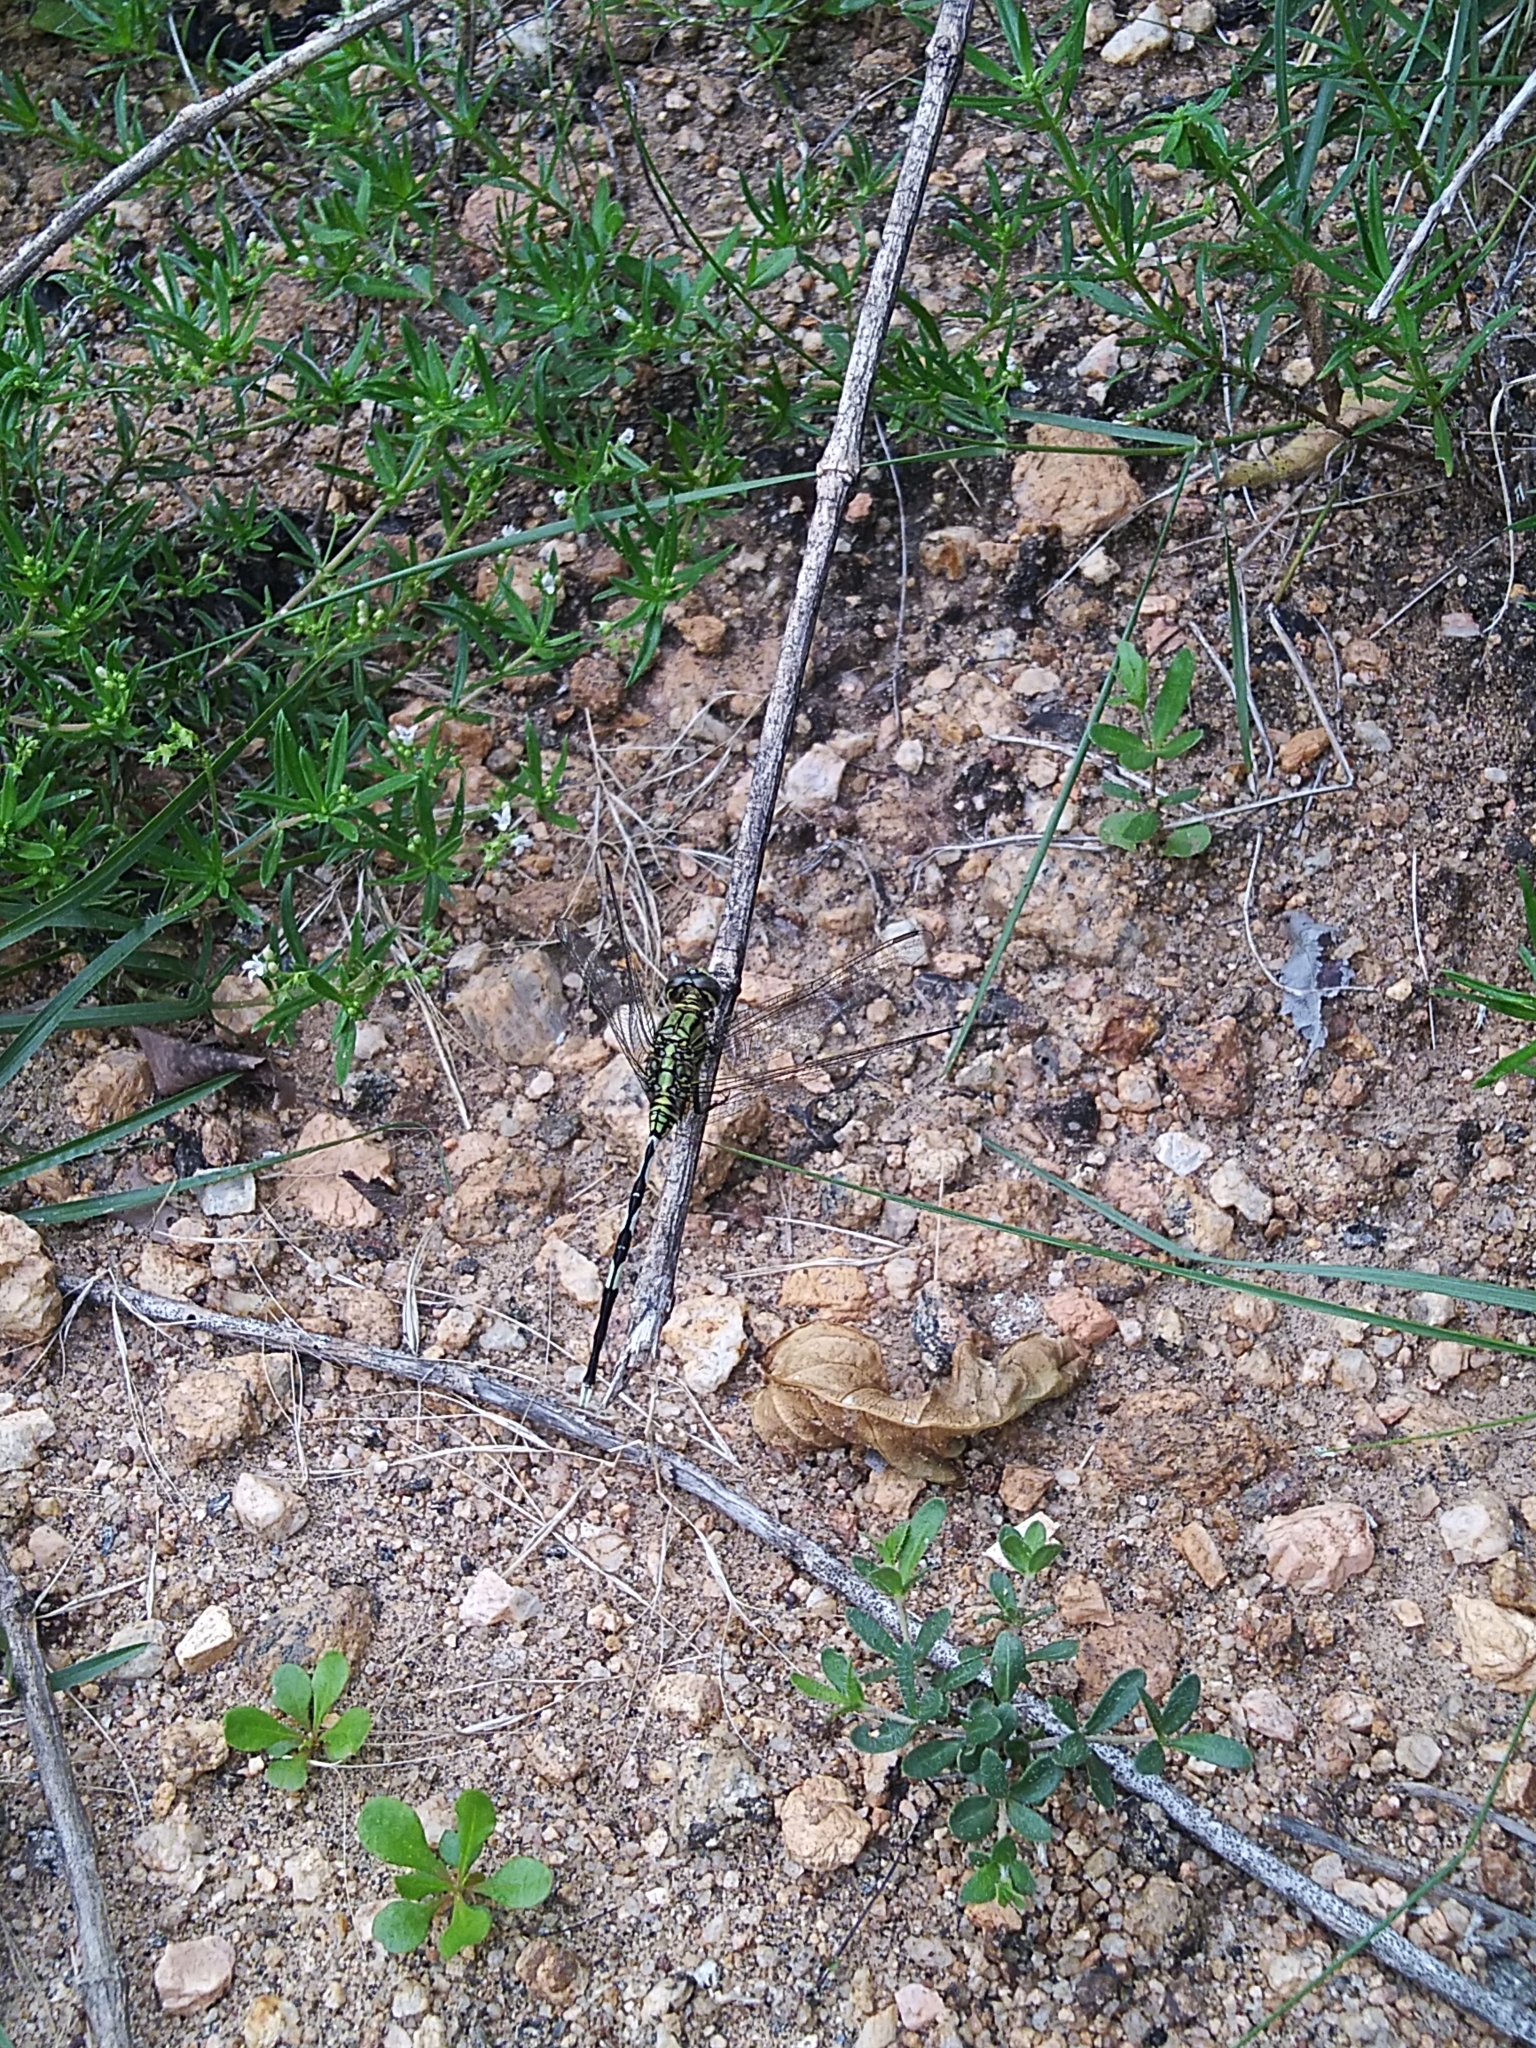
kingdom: Animalia
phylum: Arthropoda
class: Insecta
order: Odonata
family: Libellulidae
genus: Orthetrum
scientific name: Orthetrum sabina
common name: Slender skimmer
